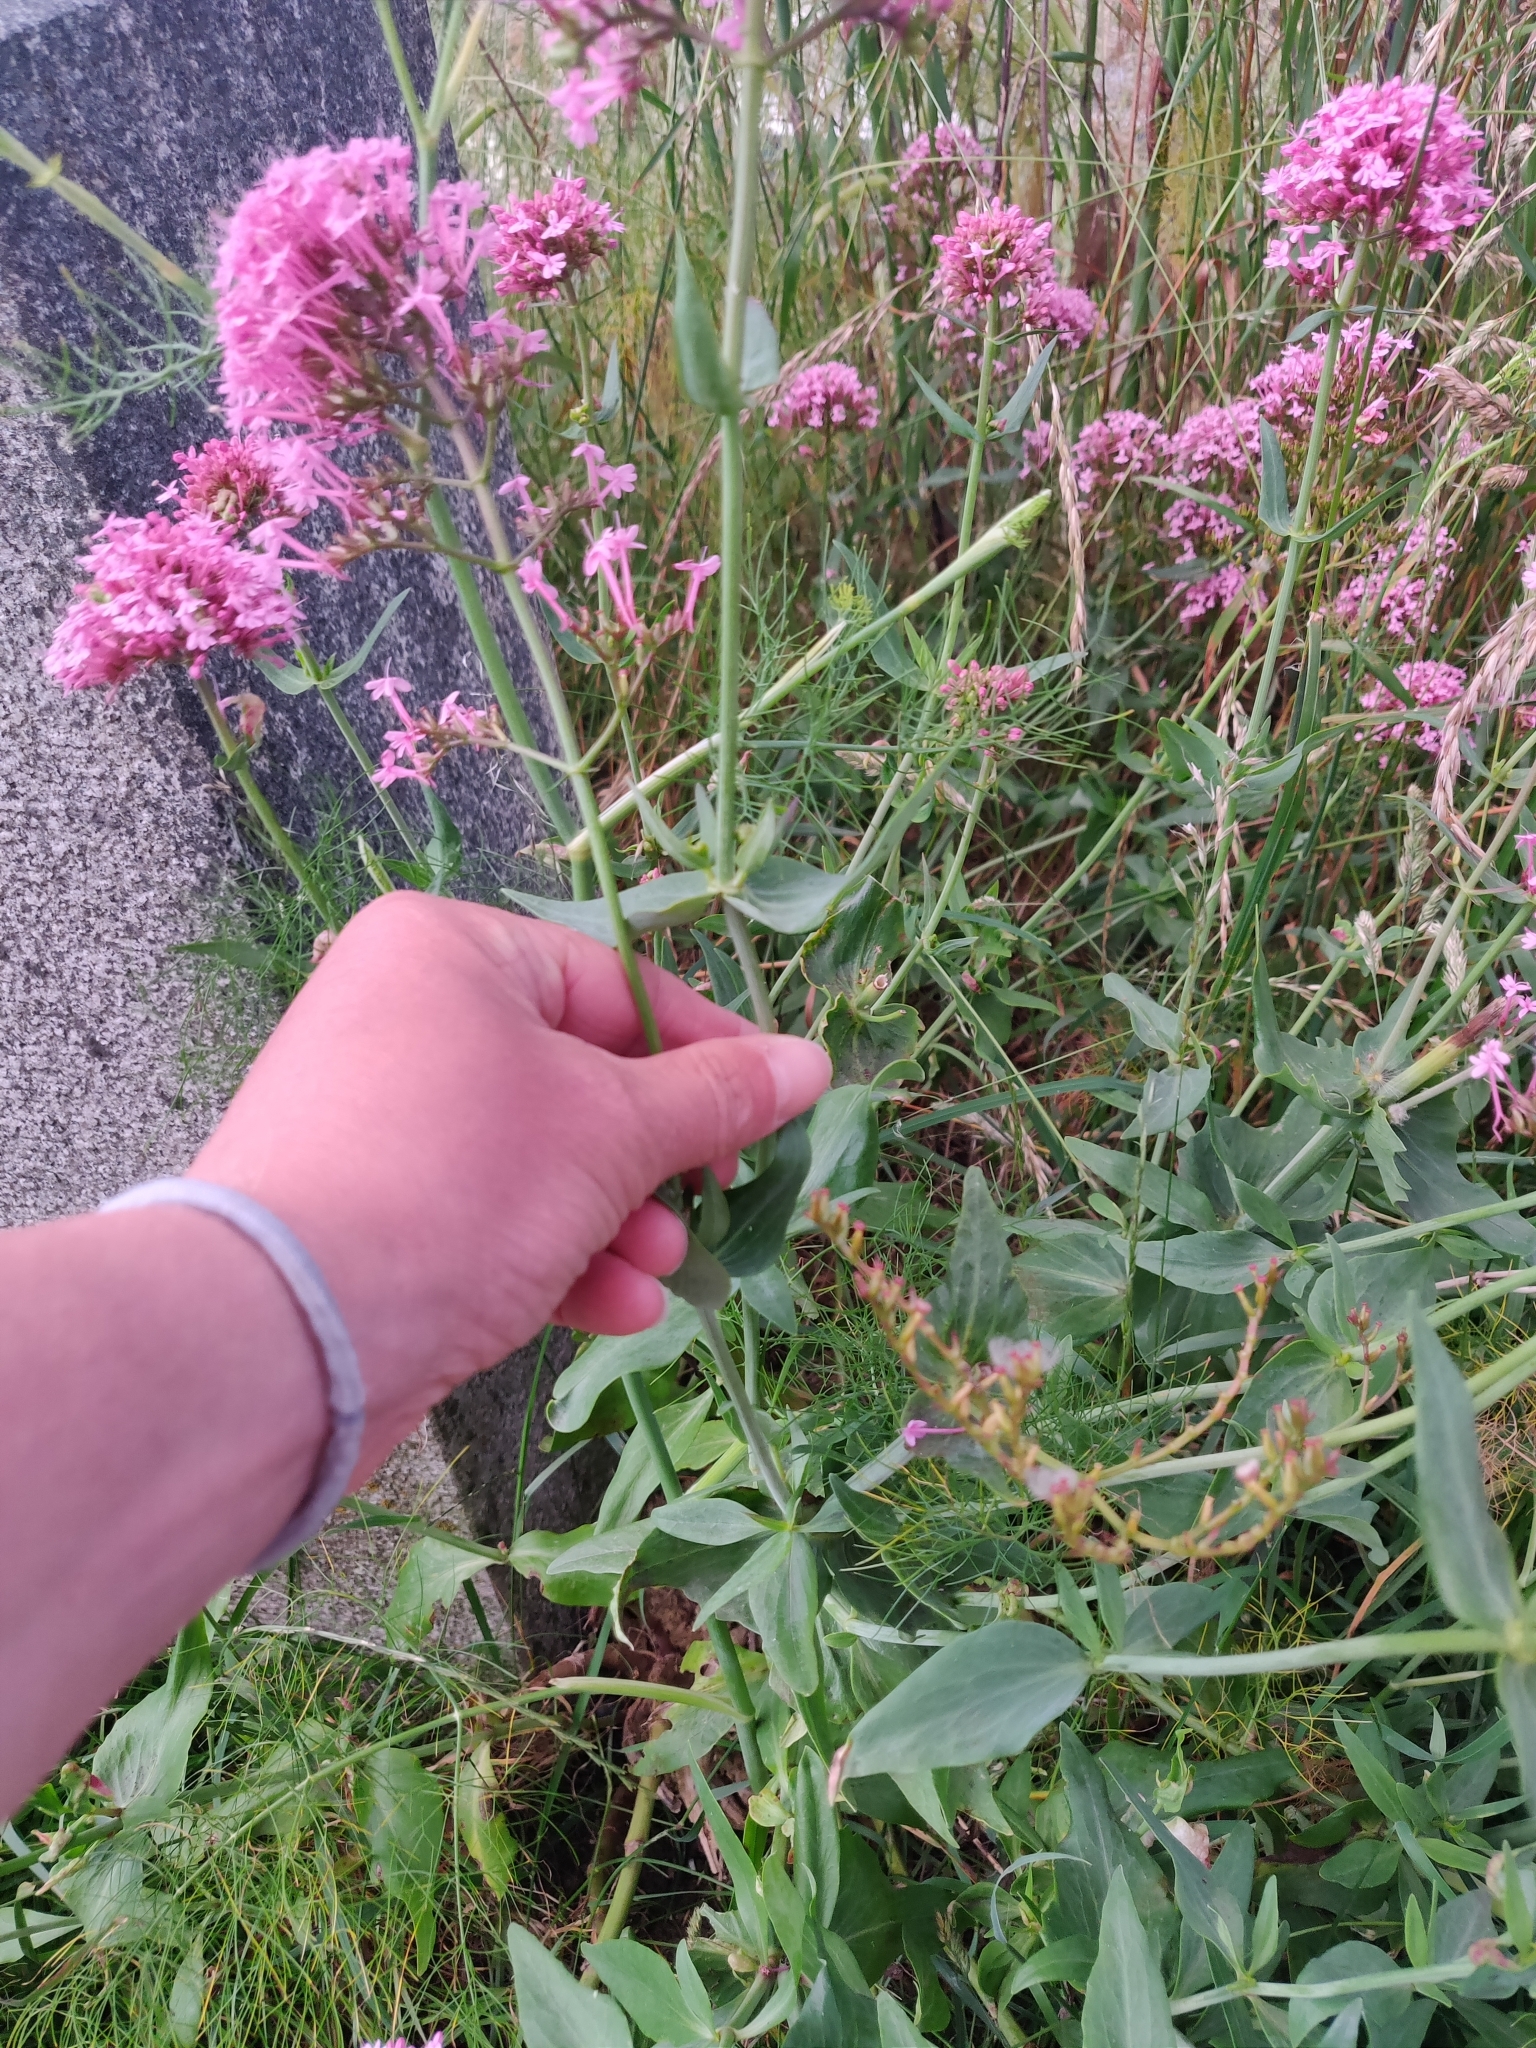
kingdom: Plantae
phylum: Tracheophyta
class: Magnoliopsida
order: Dipsacales
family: Caprifoliaceae
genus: Centranthus
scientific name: Centranthus ruber
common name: Red valerian
